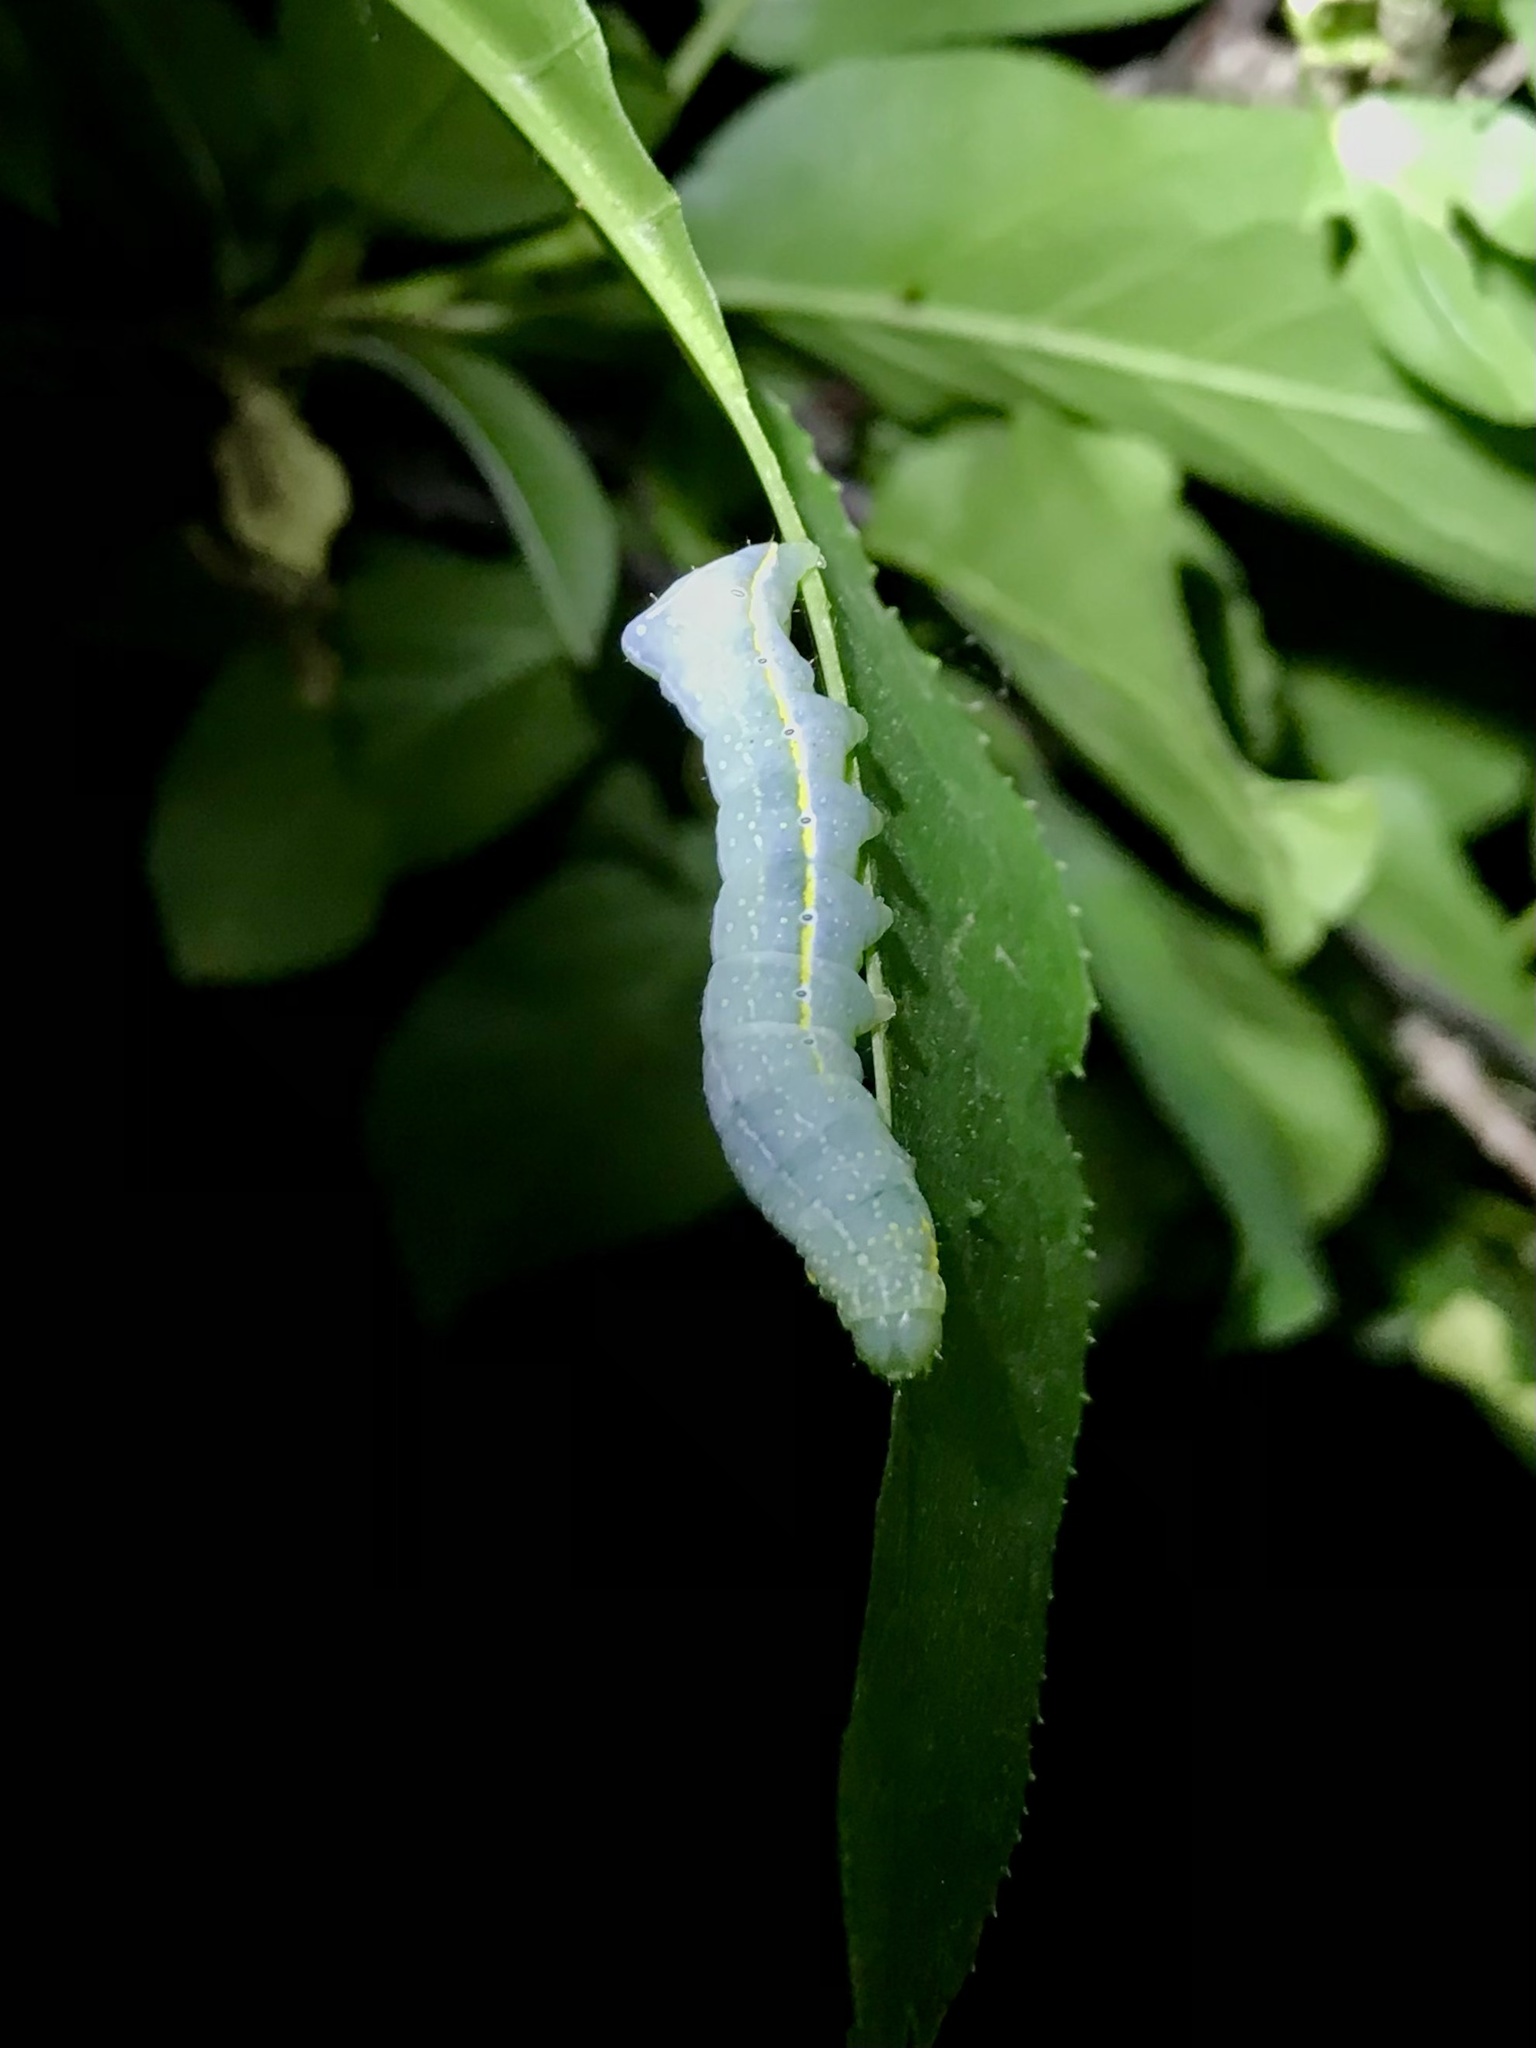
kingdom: Animalia
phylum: Arthropoda
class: Insecta
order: Lepidoptera
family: Noctuidae
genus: Amphipyra
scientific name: Amphipyra pyramidoides
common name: American copper underwing
